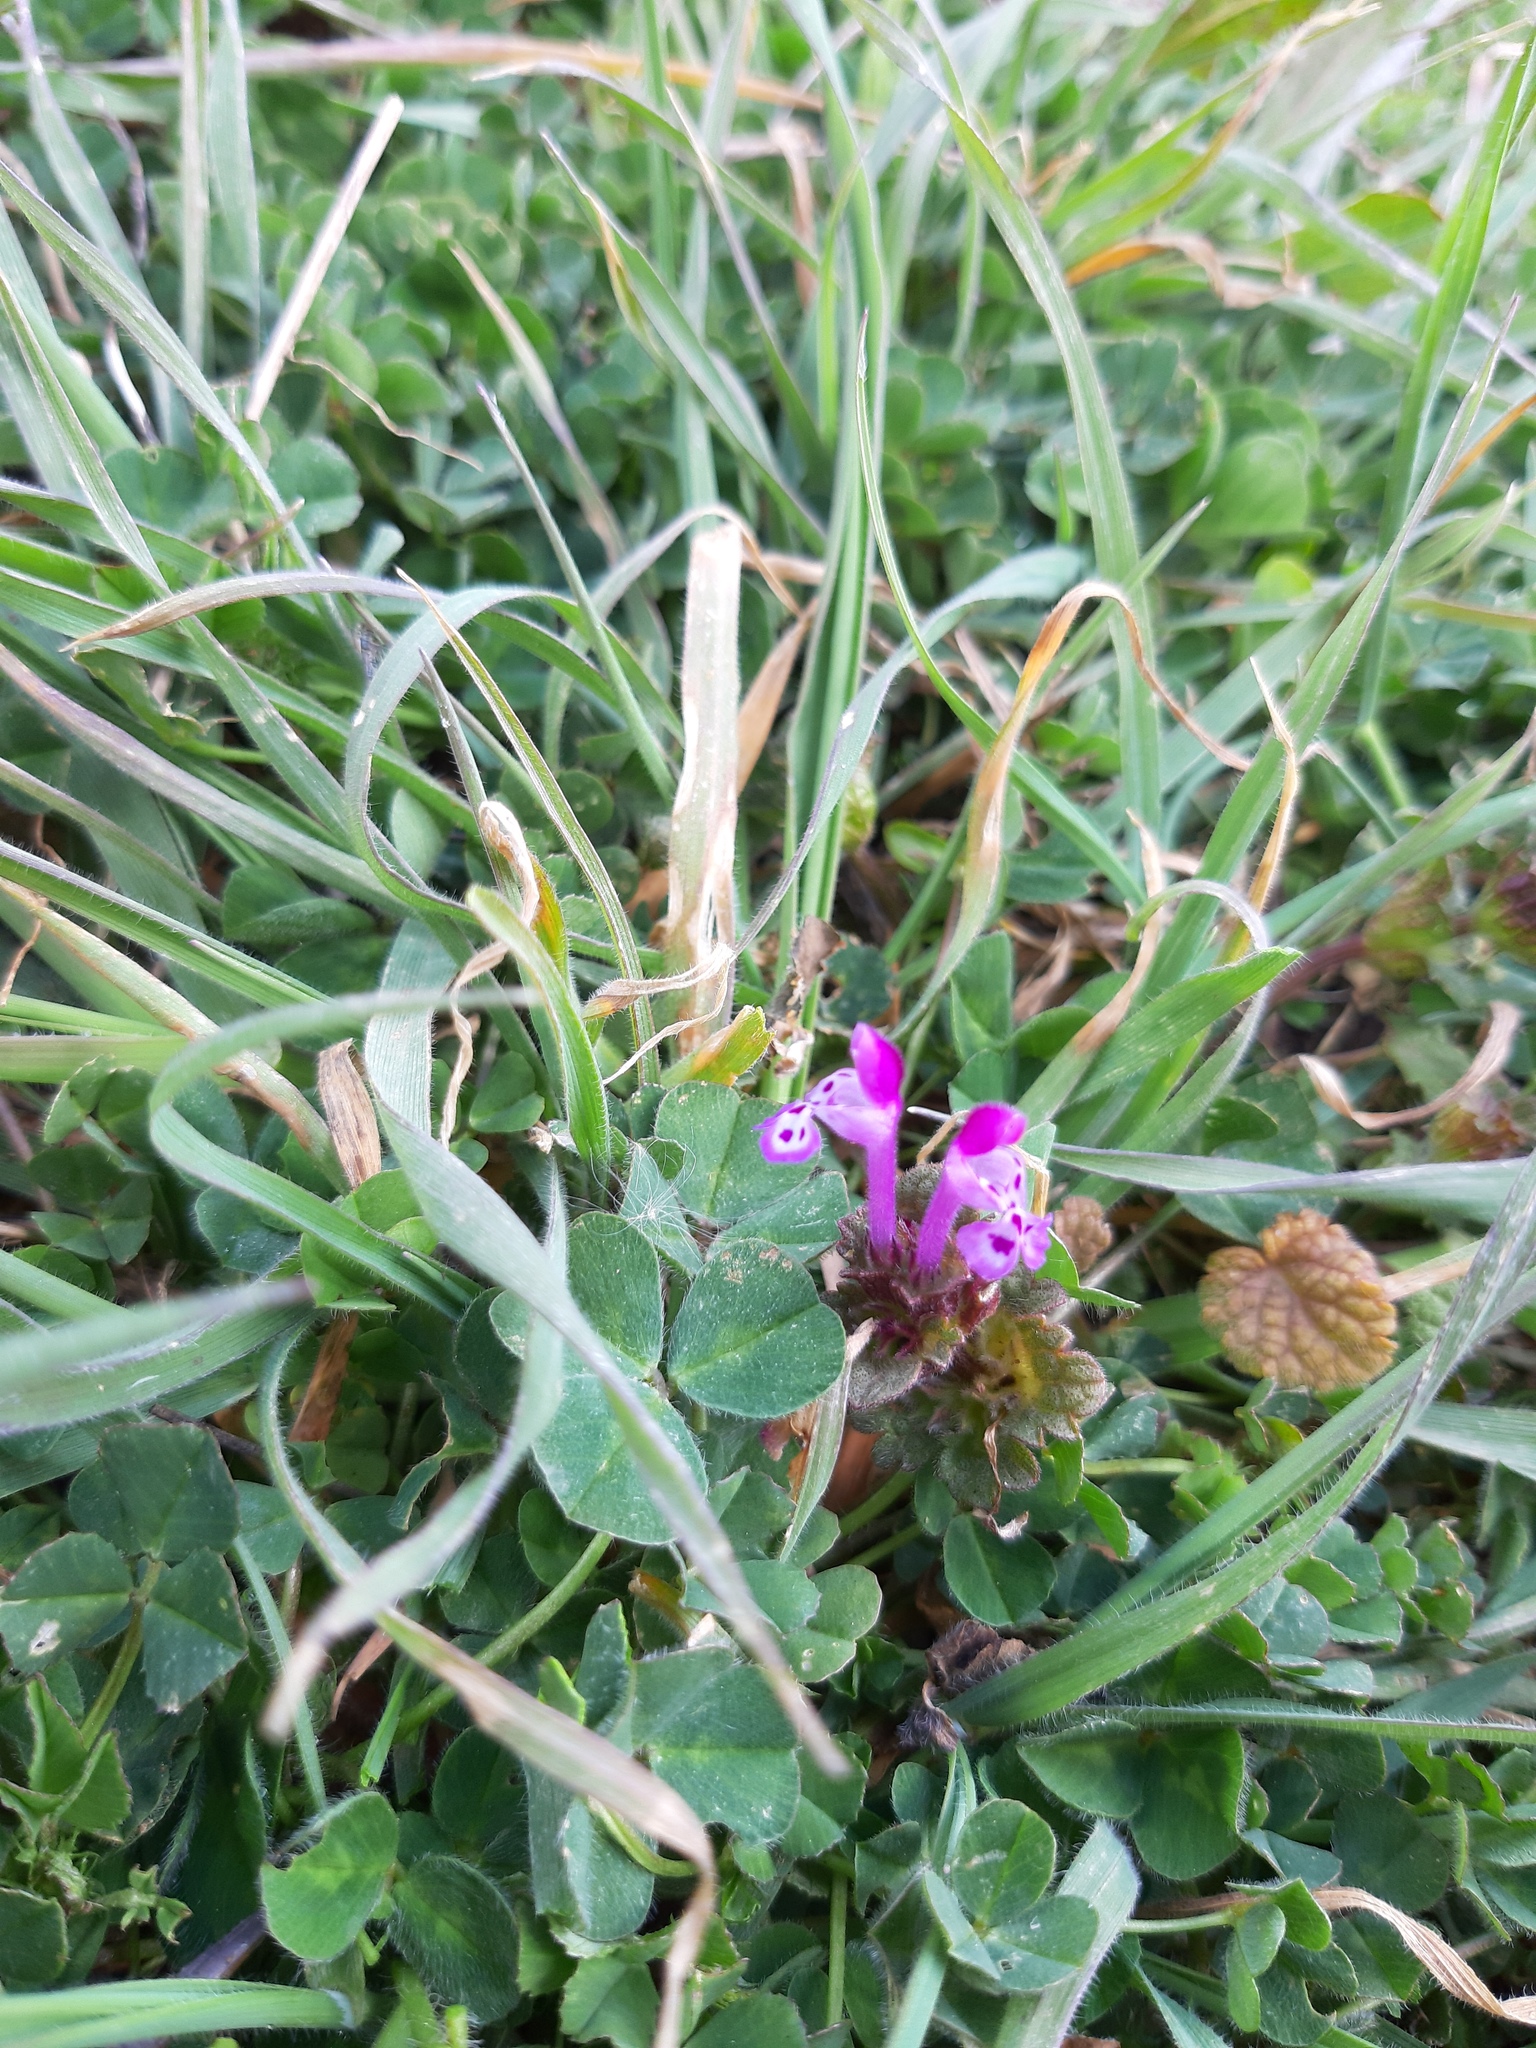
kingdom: Plantae
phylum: Tracheophyta
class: Magnoliopsida
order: Lamiales
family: Lamiaceae
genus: Lamium
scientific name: Lamium amplexicaule
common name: Henbit dead-nettle
